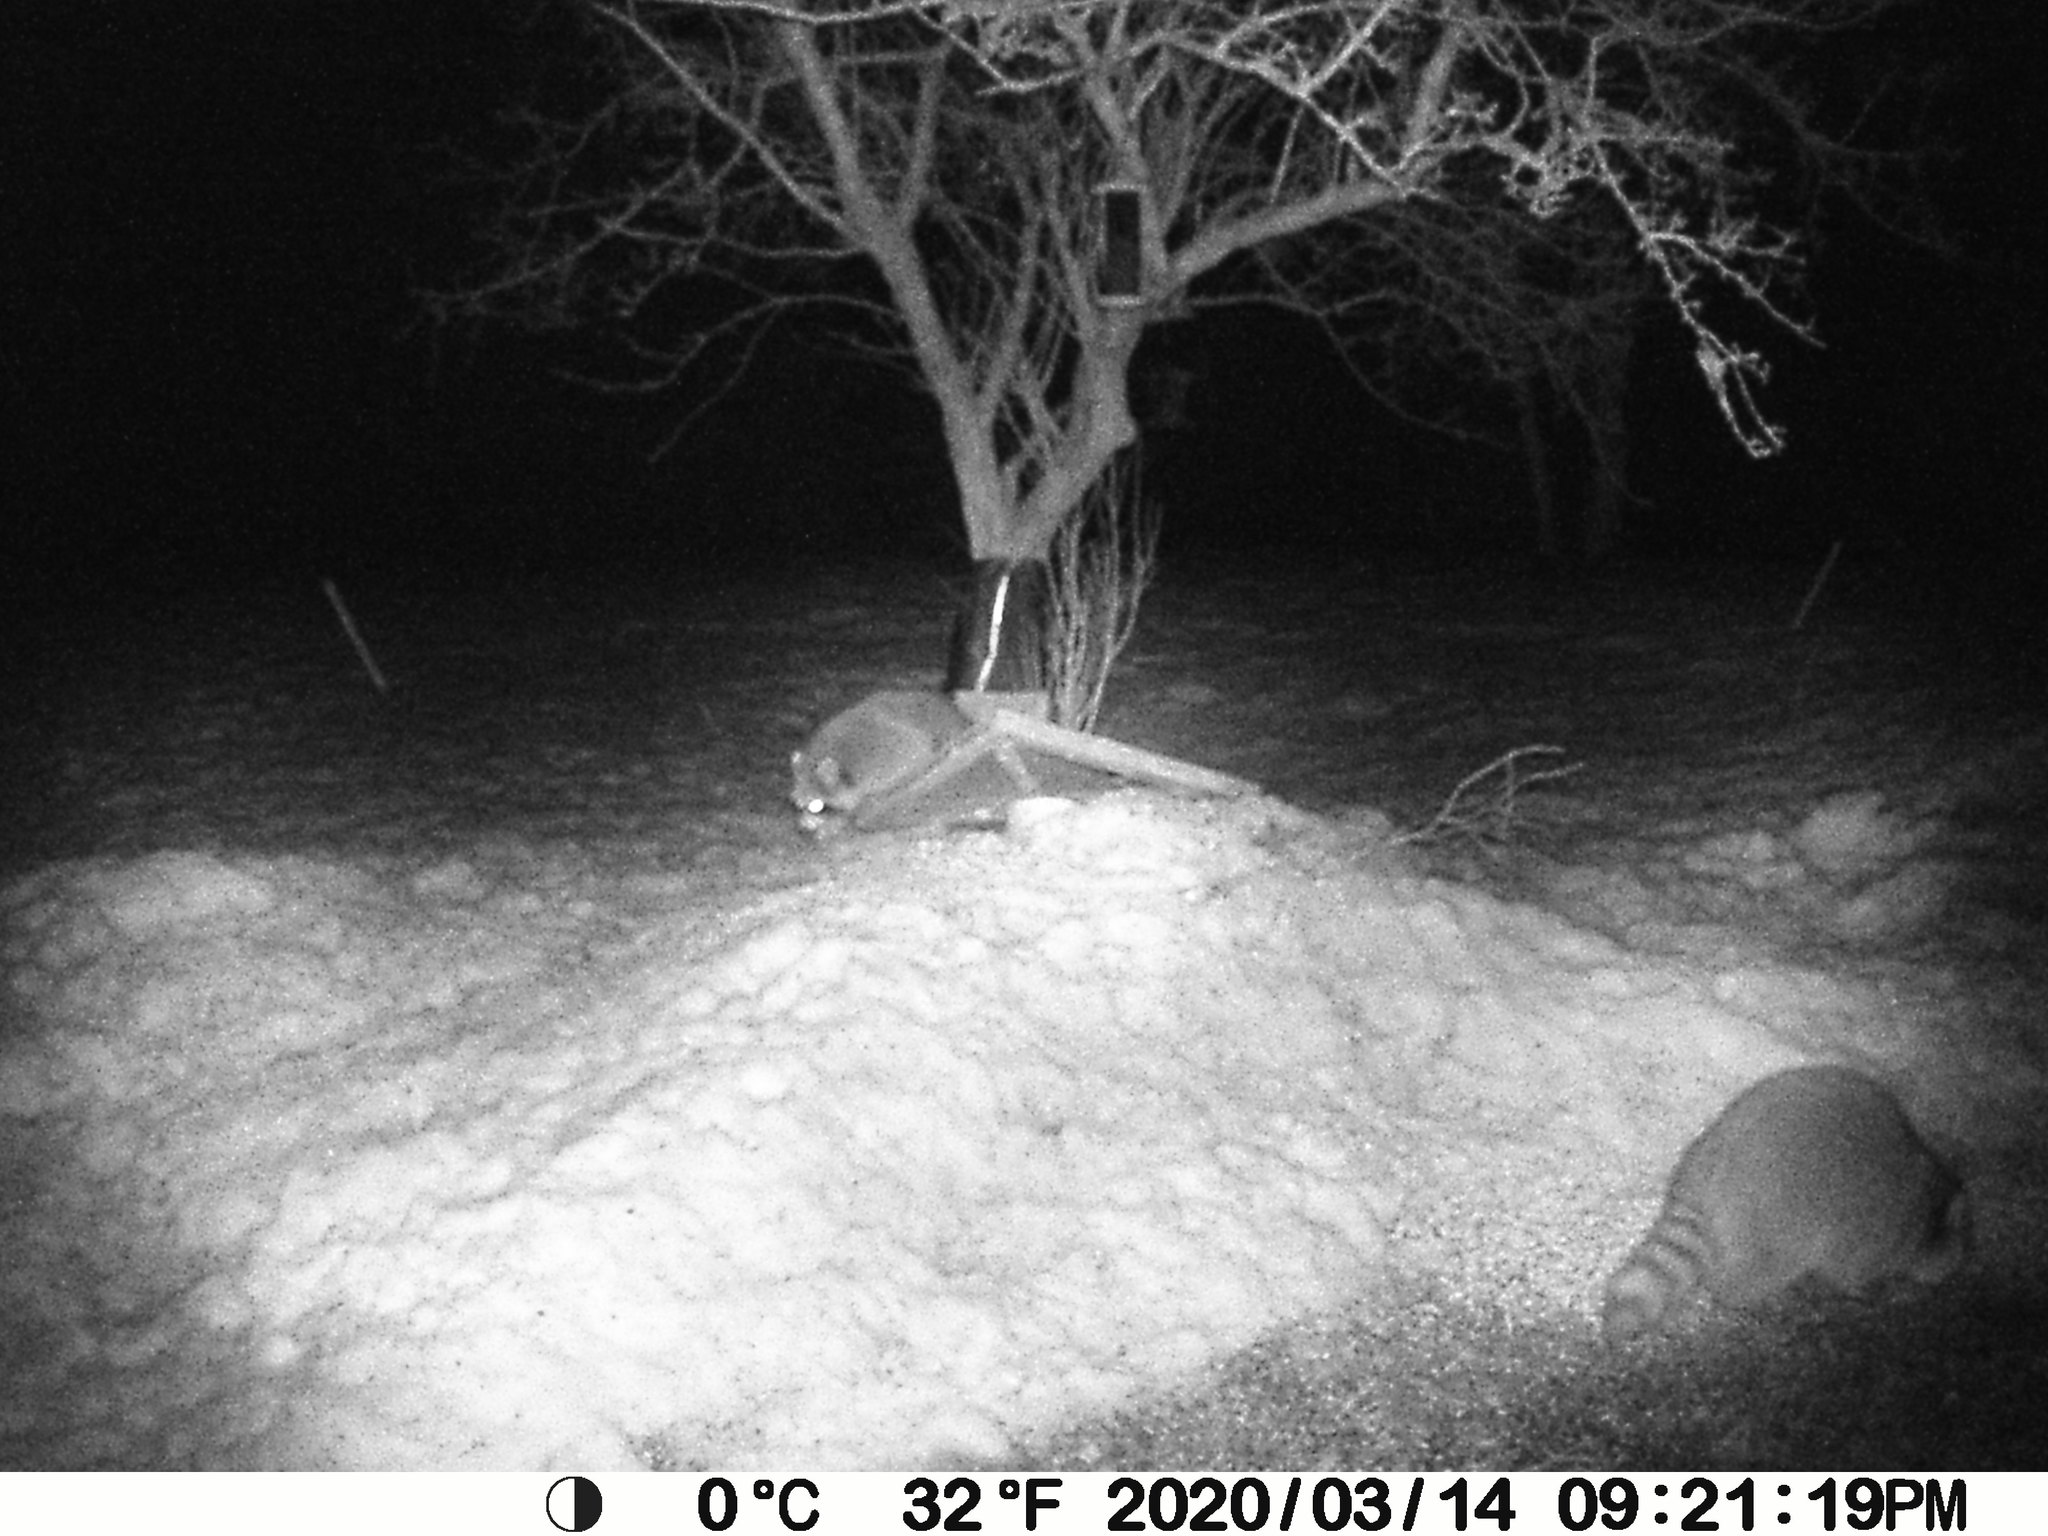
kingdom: Animalia
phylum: Chordata
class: Mammalia
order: Carnivora
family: Procyonidae
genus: Procyon
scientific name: Procyon lotor
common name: Raccoon
